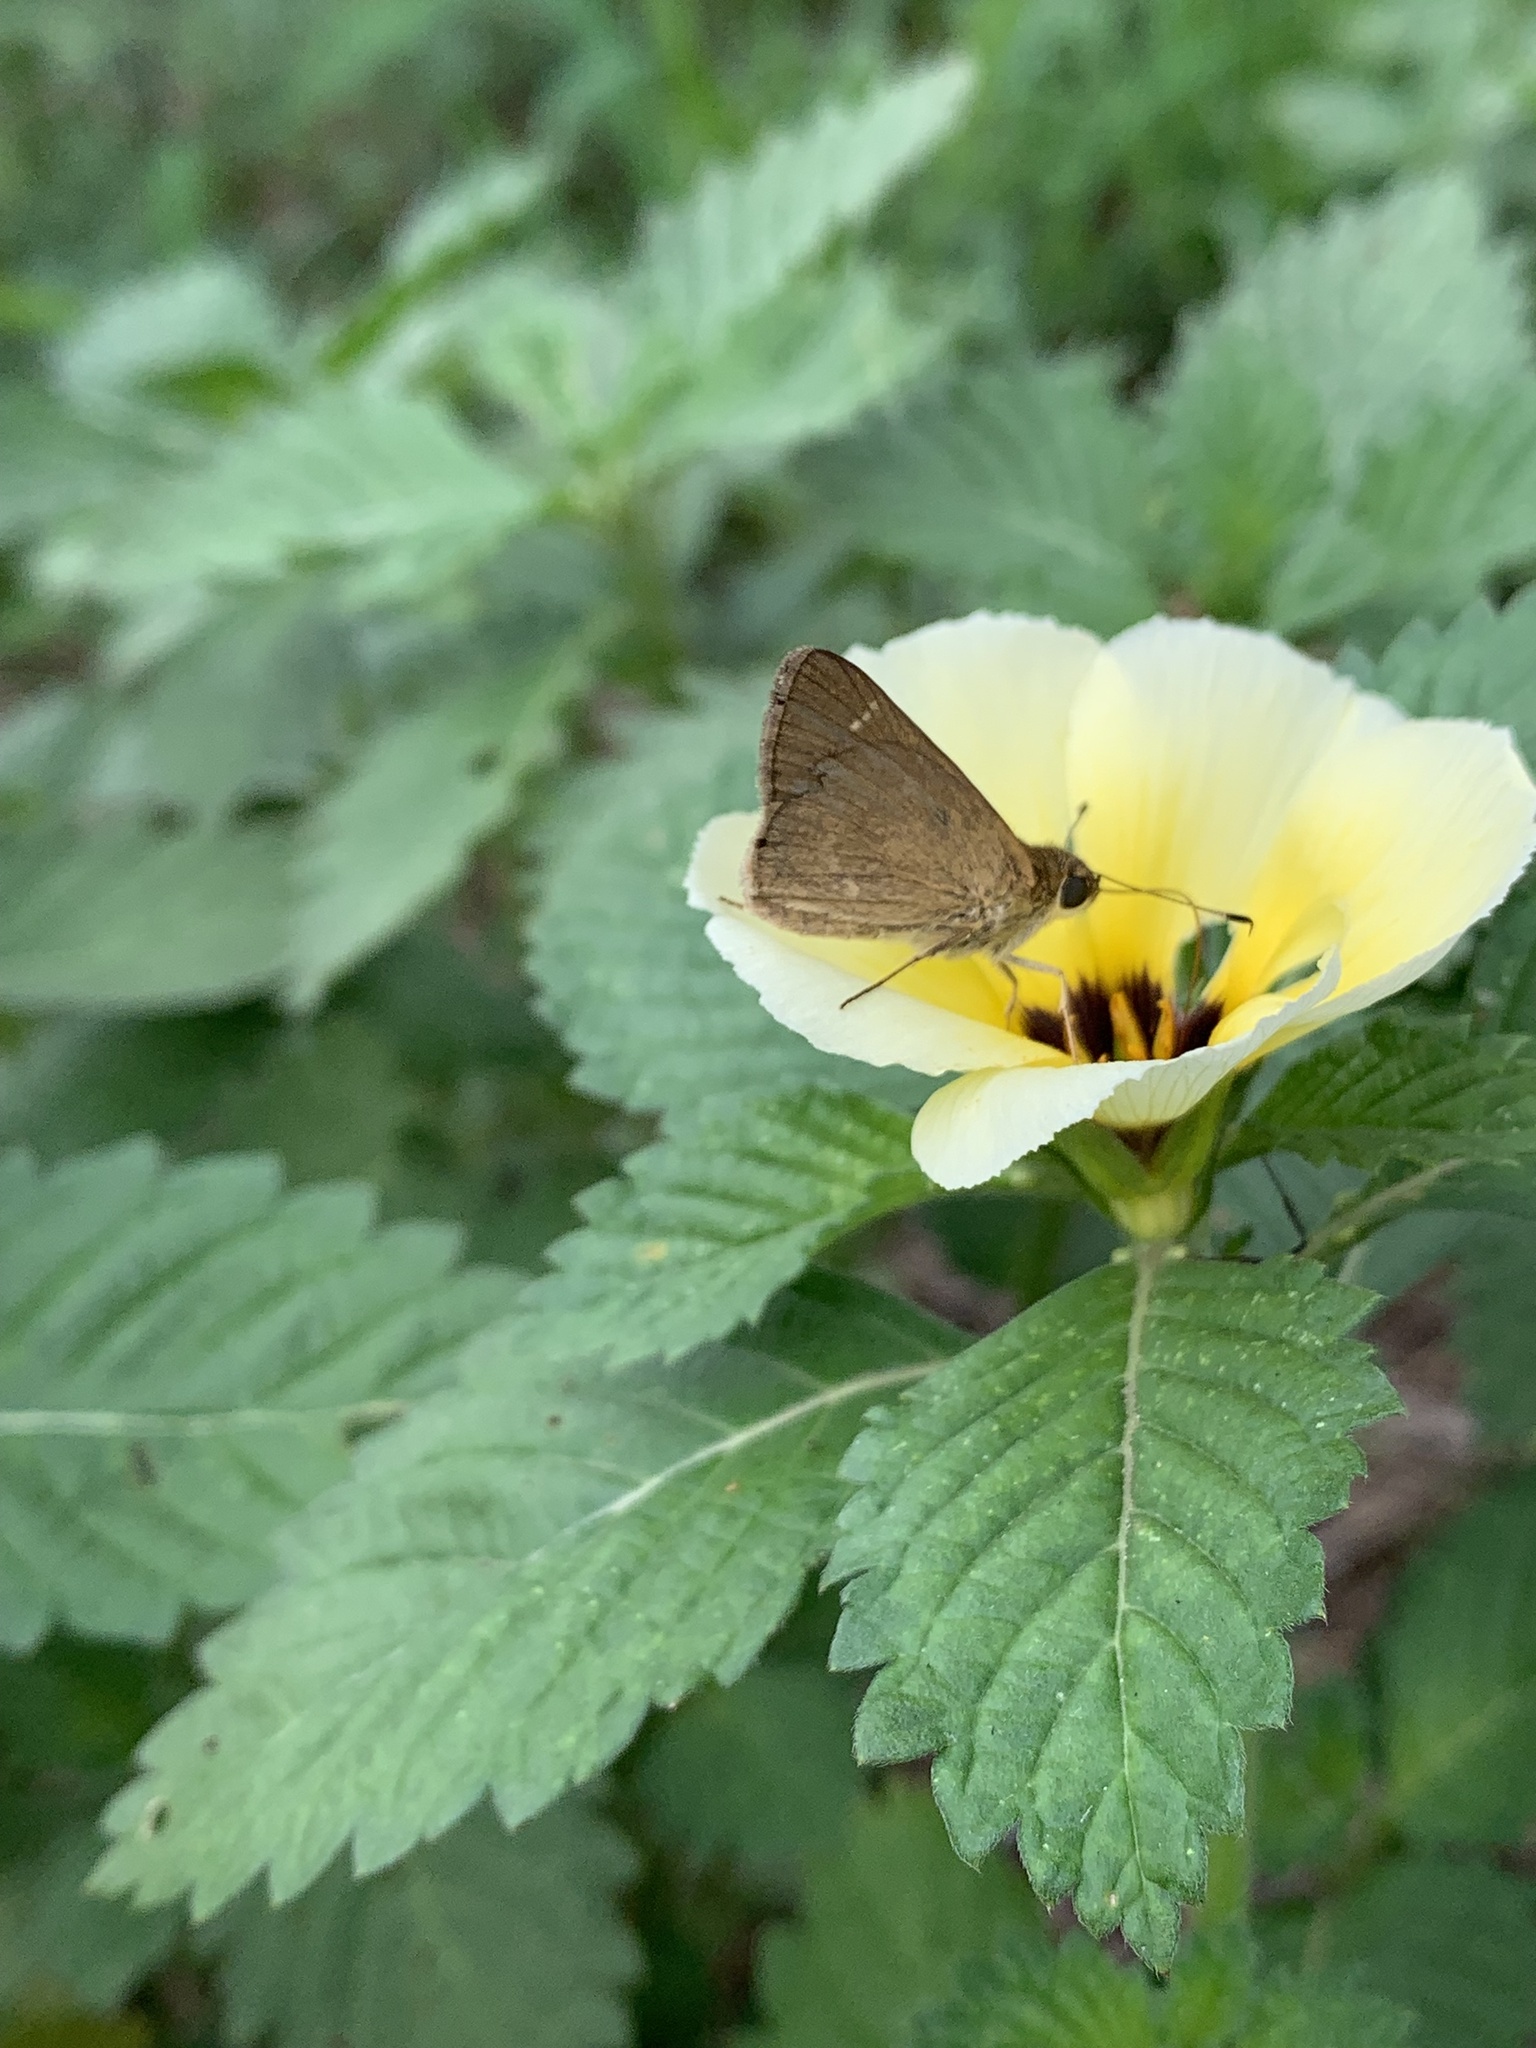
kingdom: Animalia
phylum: Arthropoda
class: Insecta
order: Lepidoptera
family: Hesperiidae
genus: Cymaenes
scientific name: Cymaenes tripunctus
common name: Dingy dotted skipper
